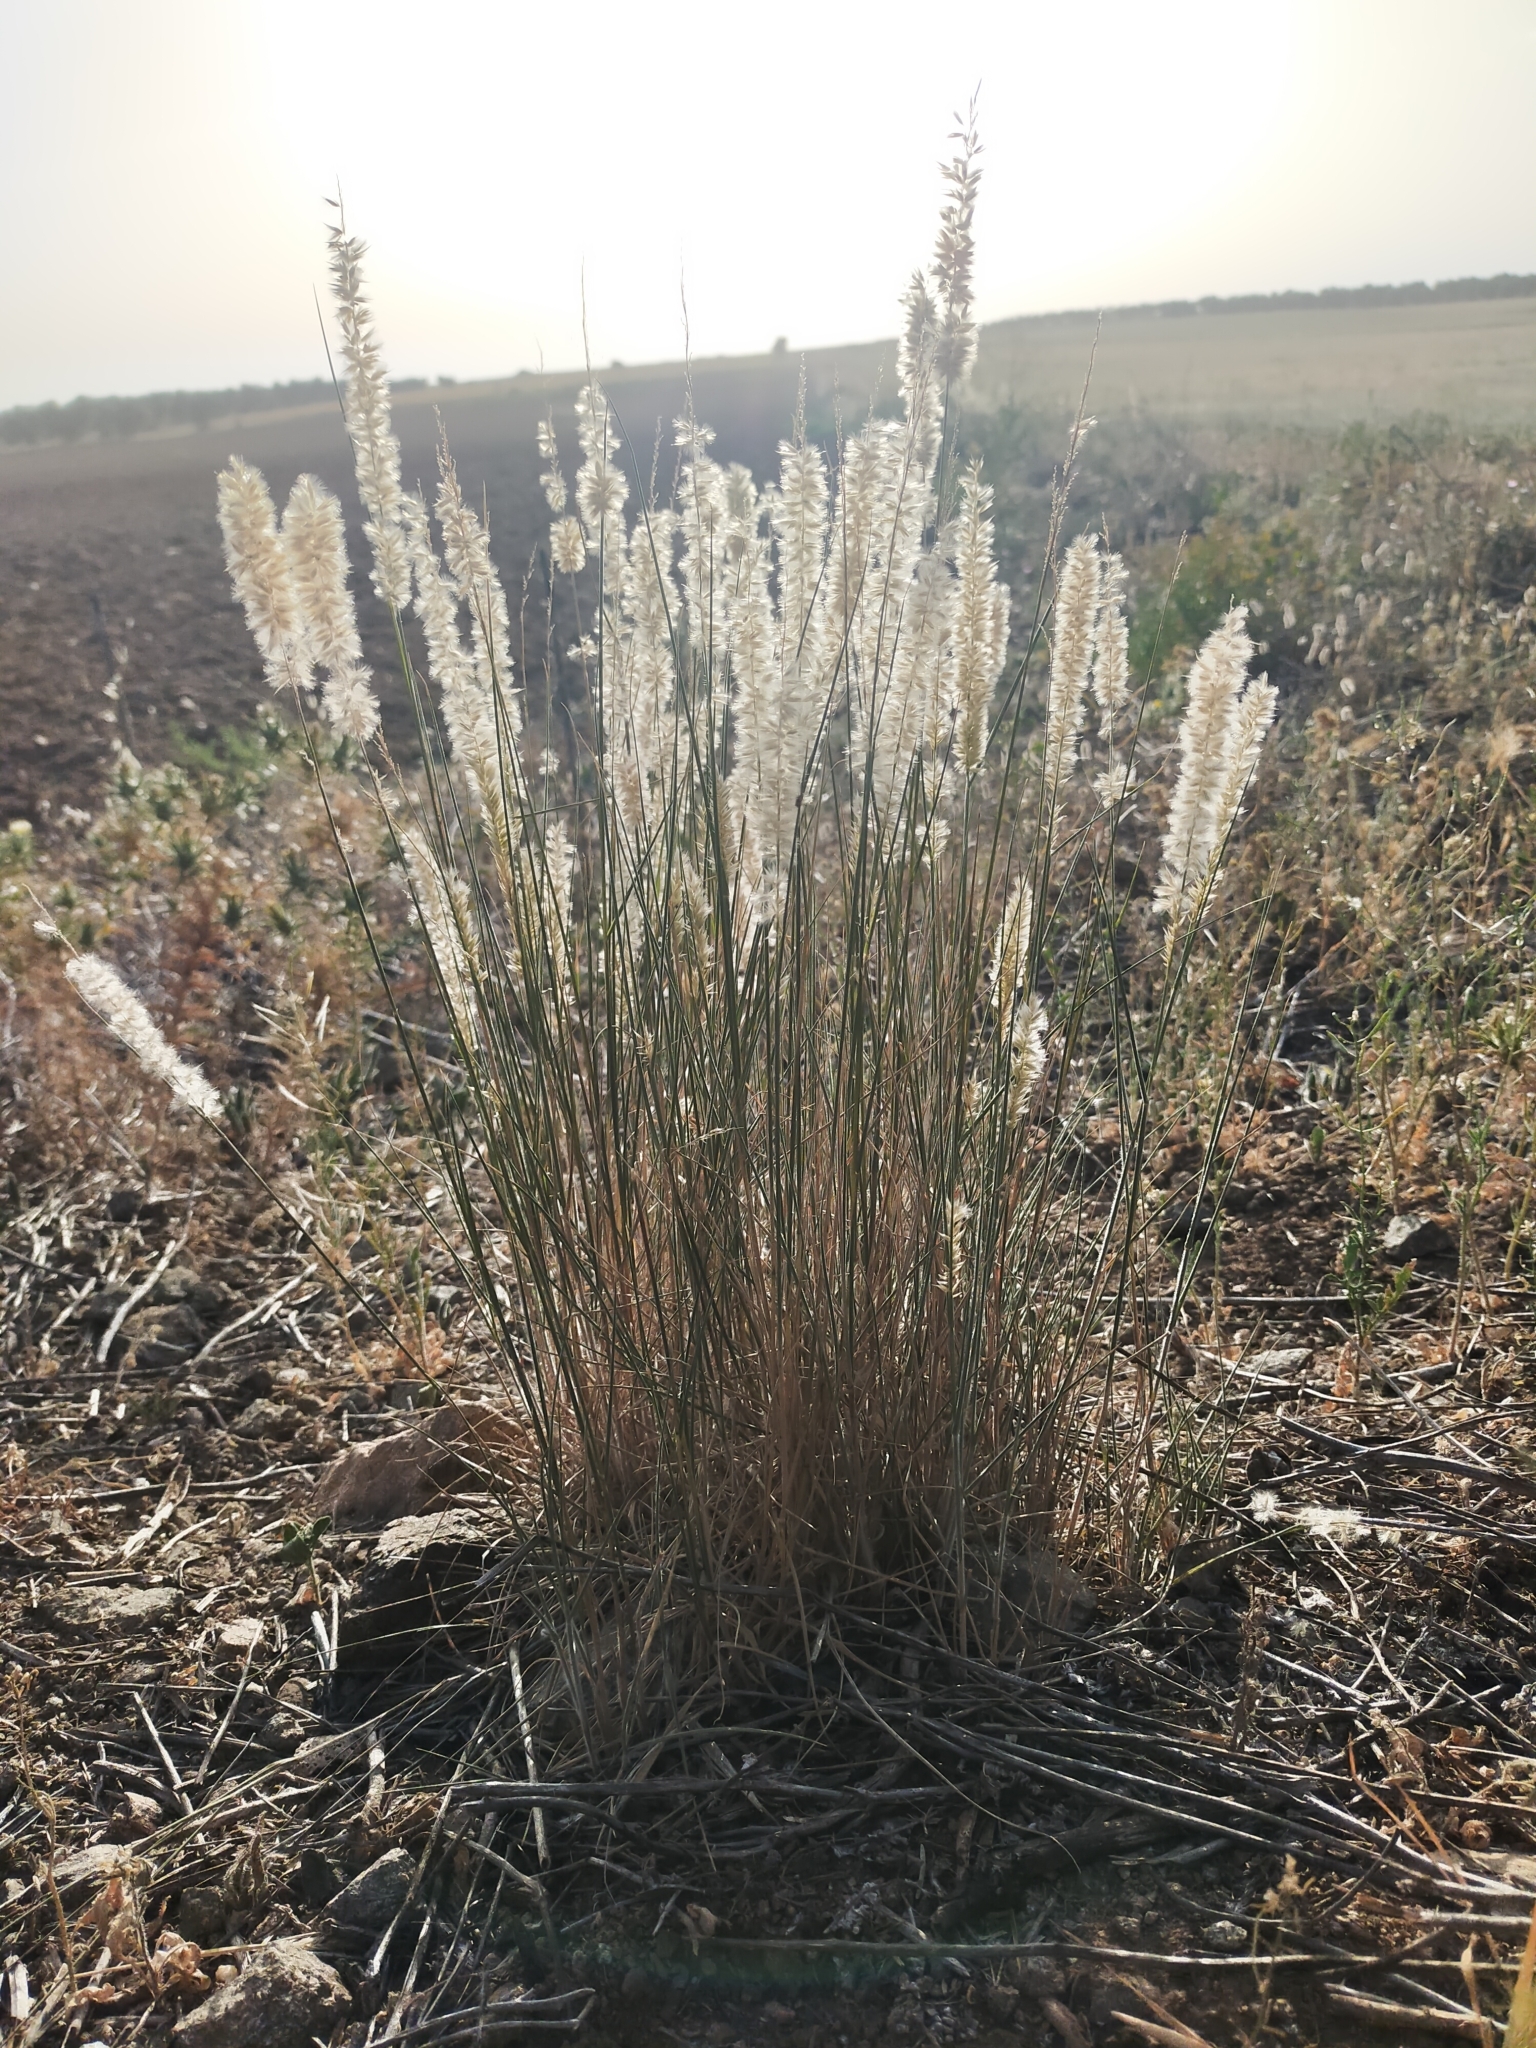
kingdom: Plantae
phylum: Tracheophyta
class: Liliopsida
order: Poales
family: Poaceae
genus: Melica
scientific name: Melica ciliata
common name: Hairy melicgrass
